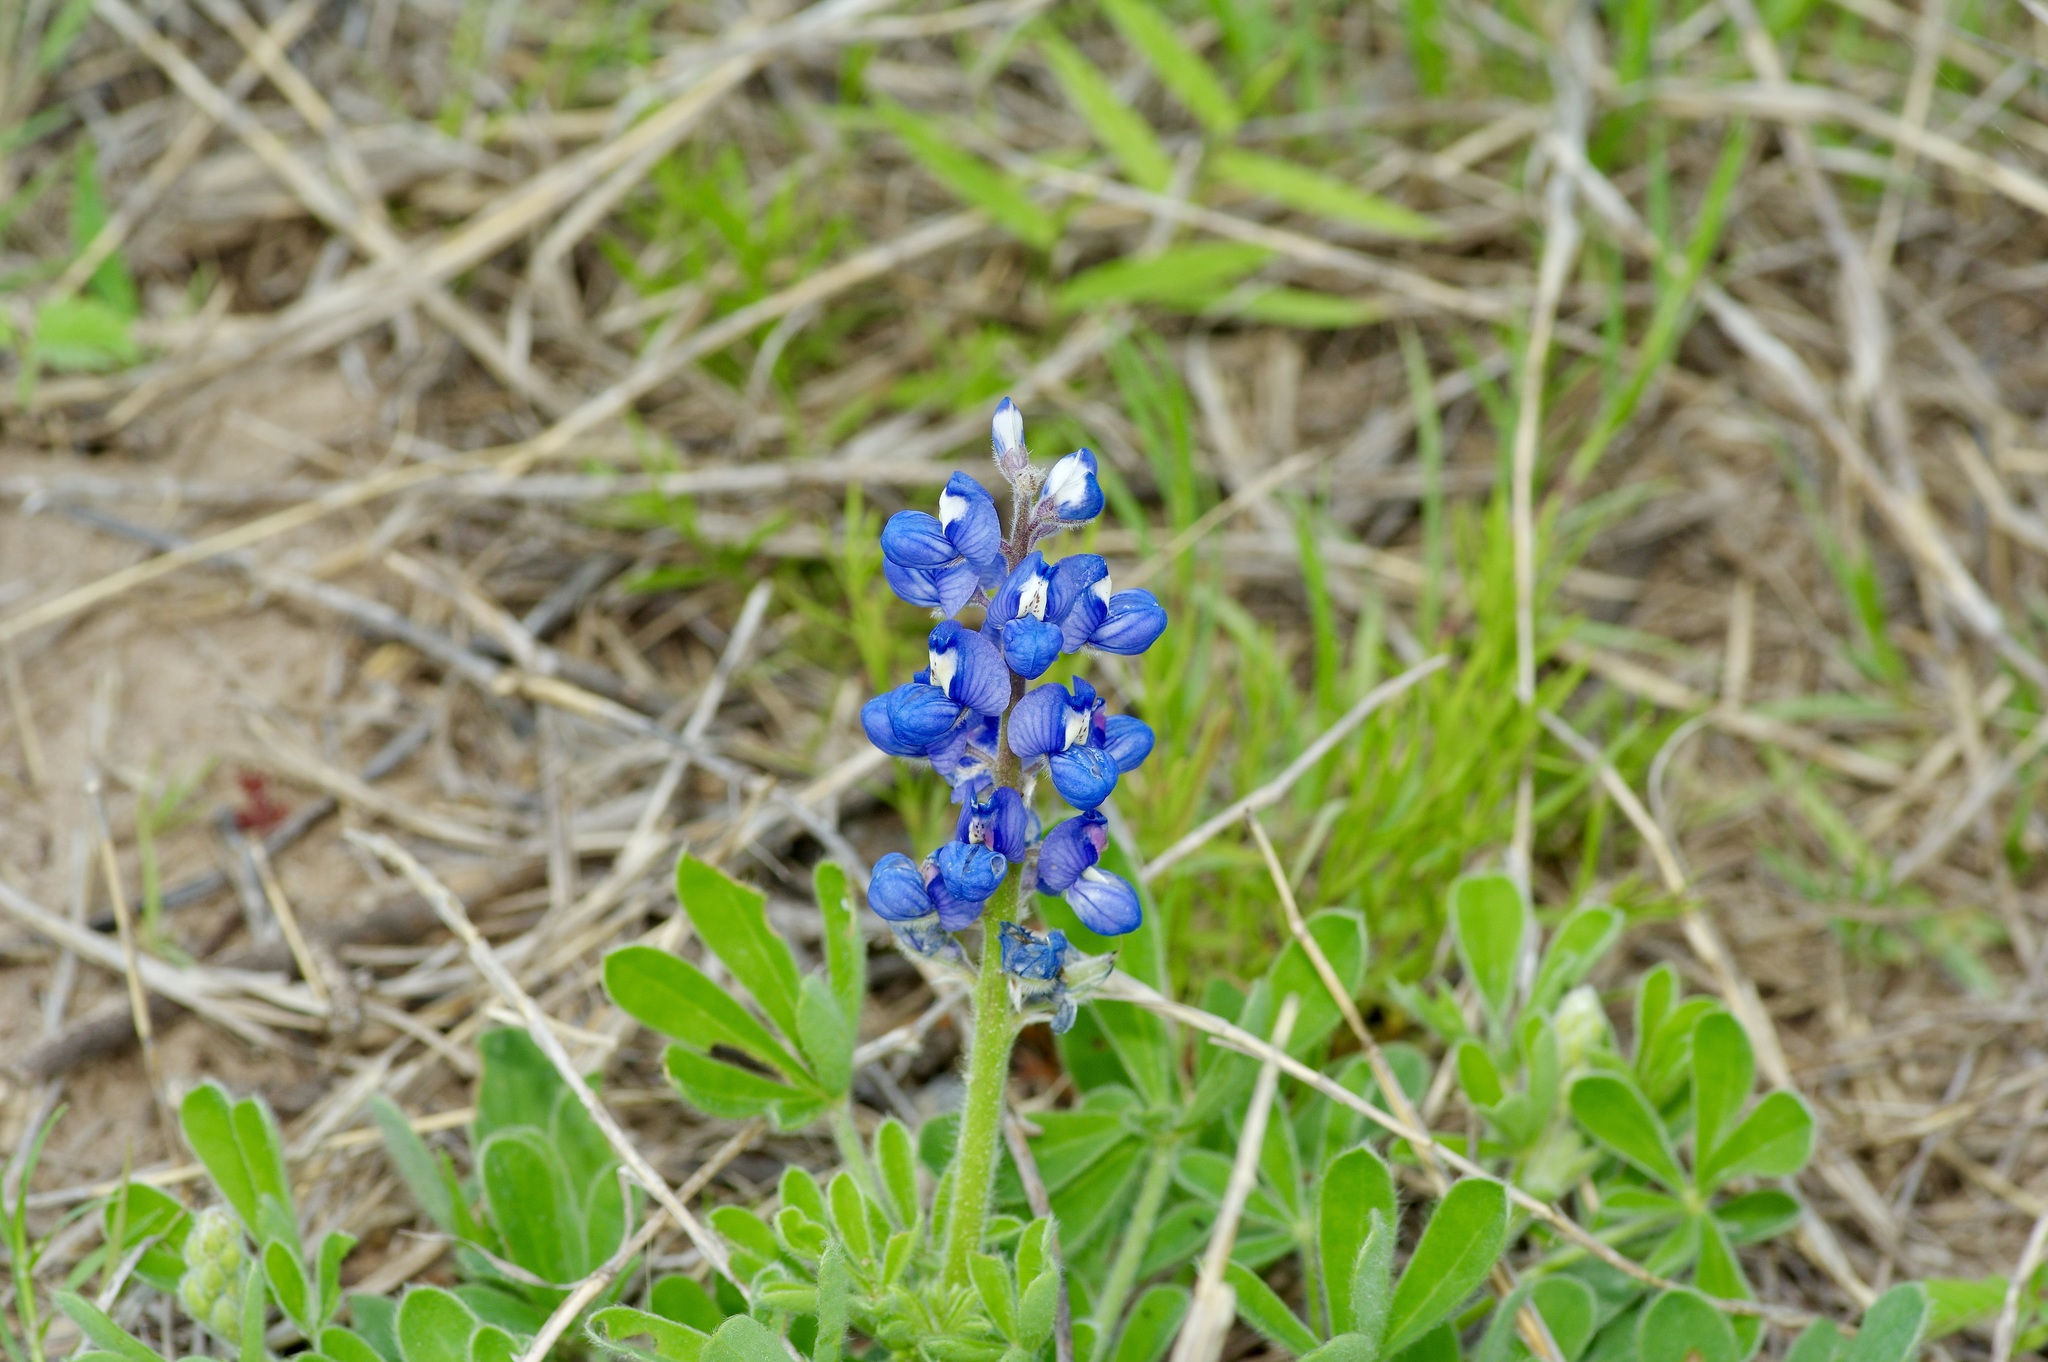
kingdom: Plantae
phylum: Tracheophyta
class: Magnoliopsida
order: Fabales
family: Fabaceae
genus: Lupinus
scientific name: Lupinus subcarnosus
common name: Texas bluebonnet
